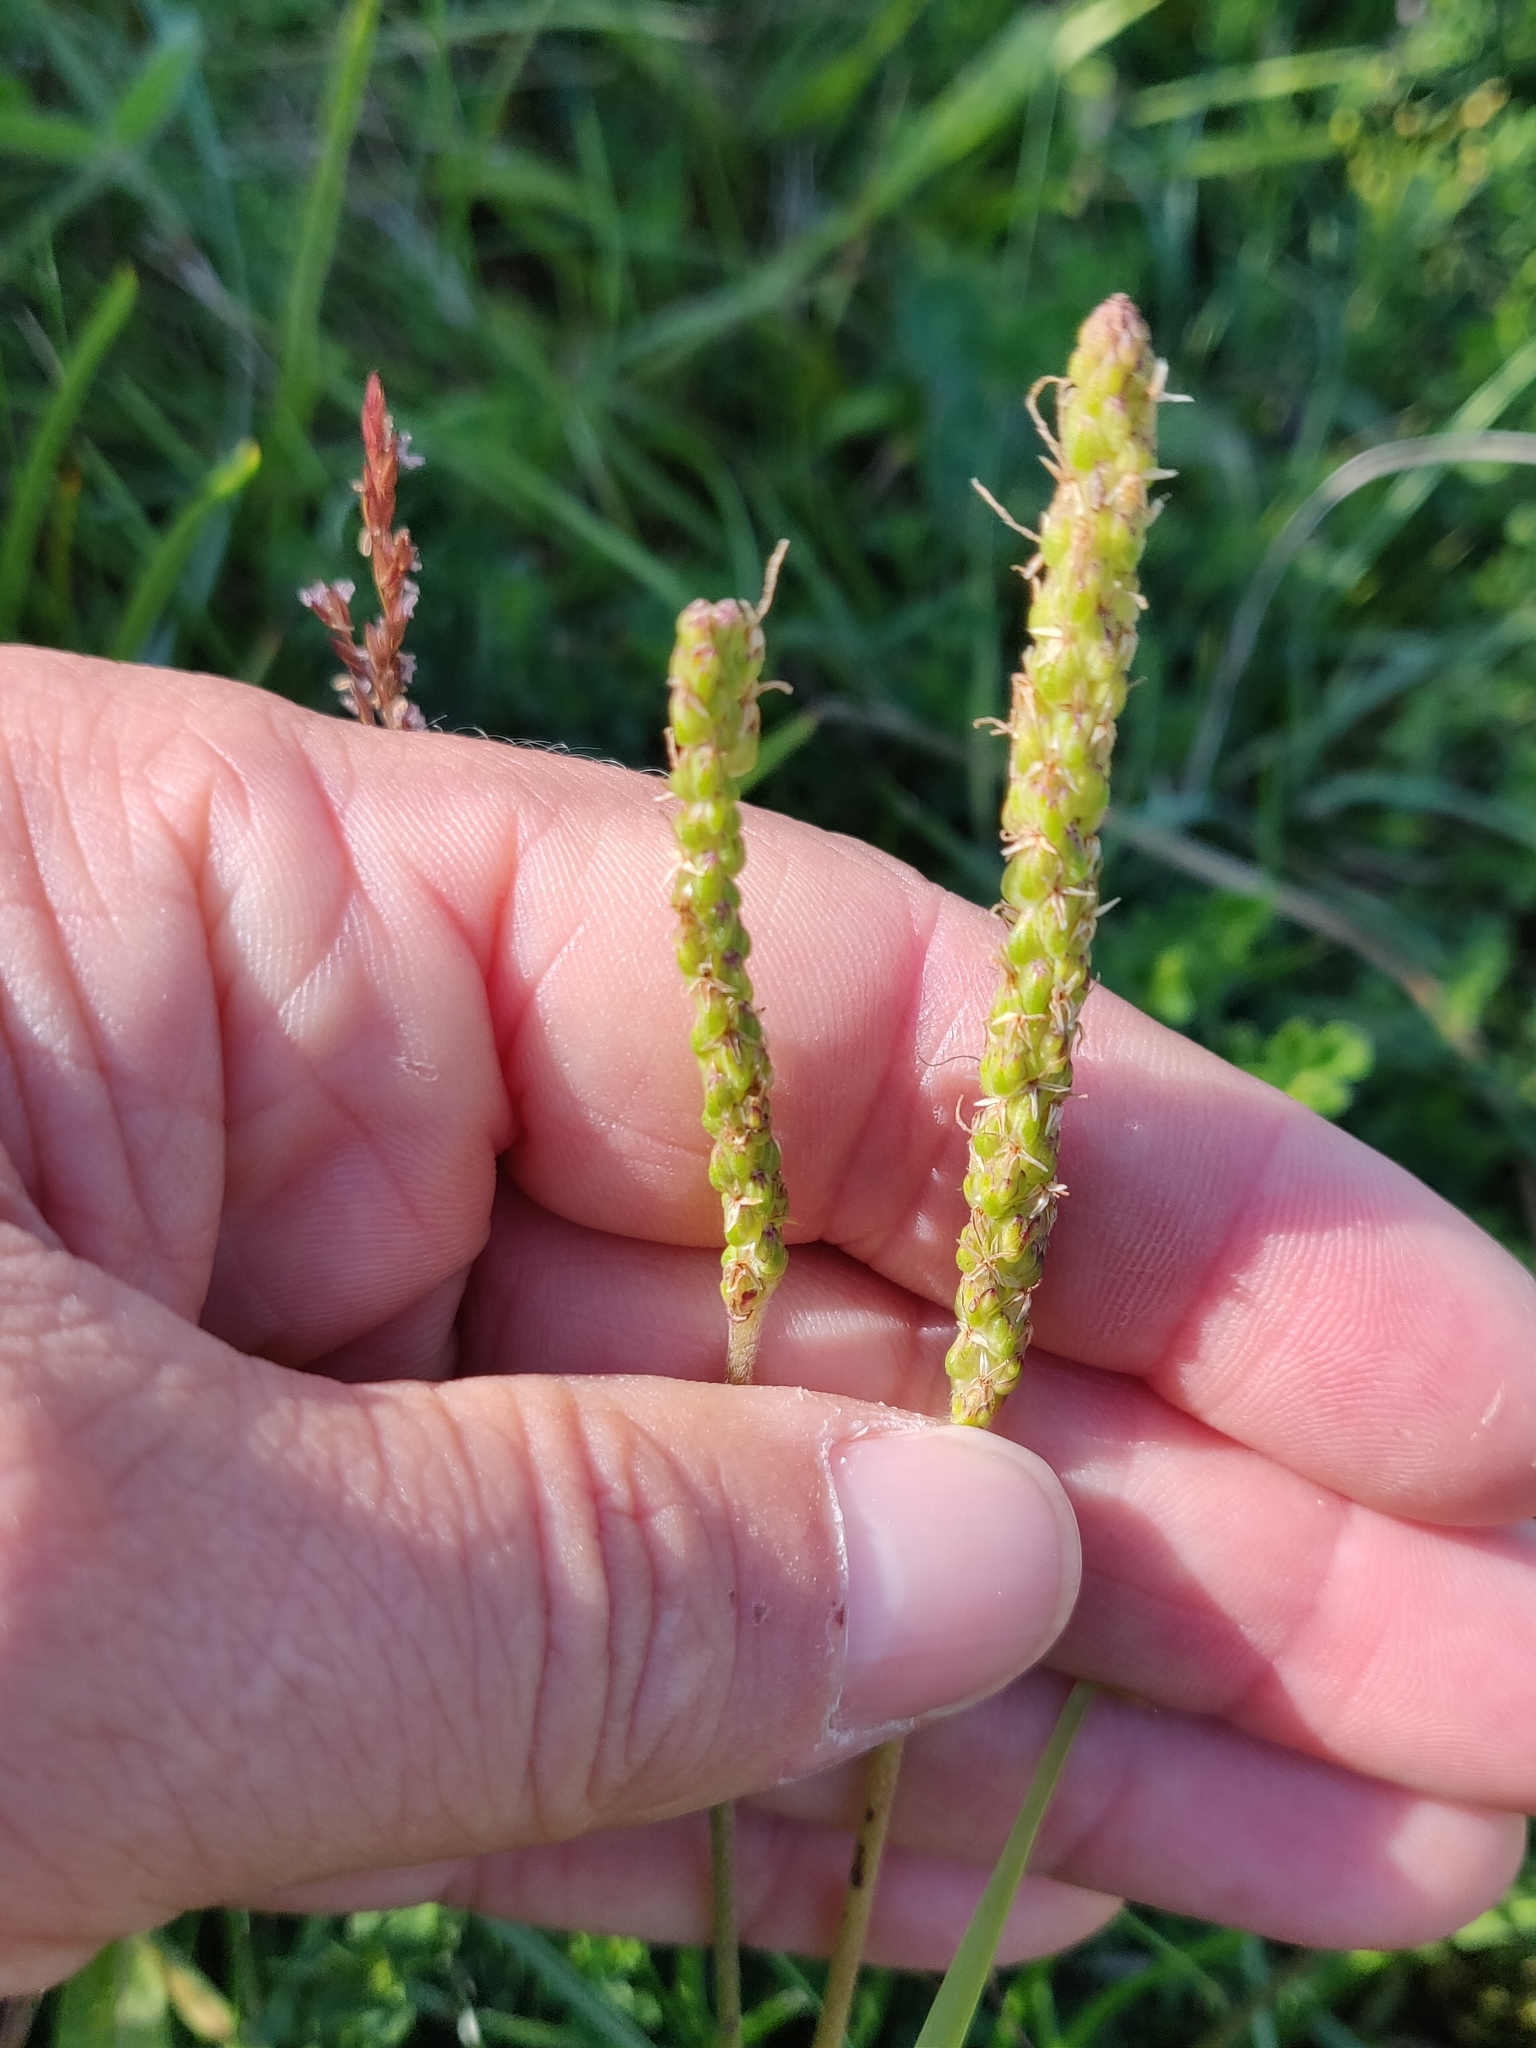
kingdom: Plantae
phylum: Tracheophyta
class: Magnoliopsida
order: Lamiales
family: Plantaginaceae
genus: Plantago
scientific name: Plantago maritima
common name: Sea plantain
